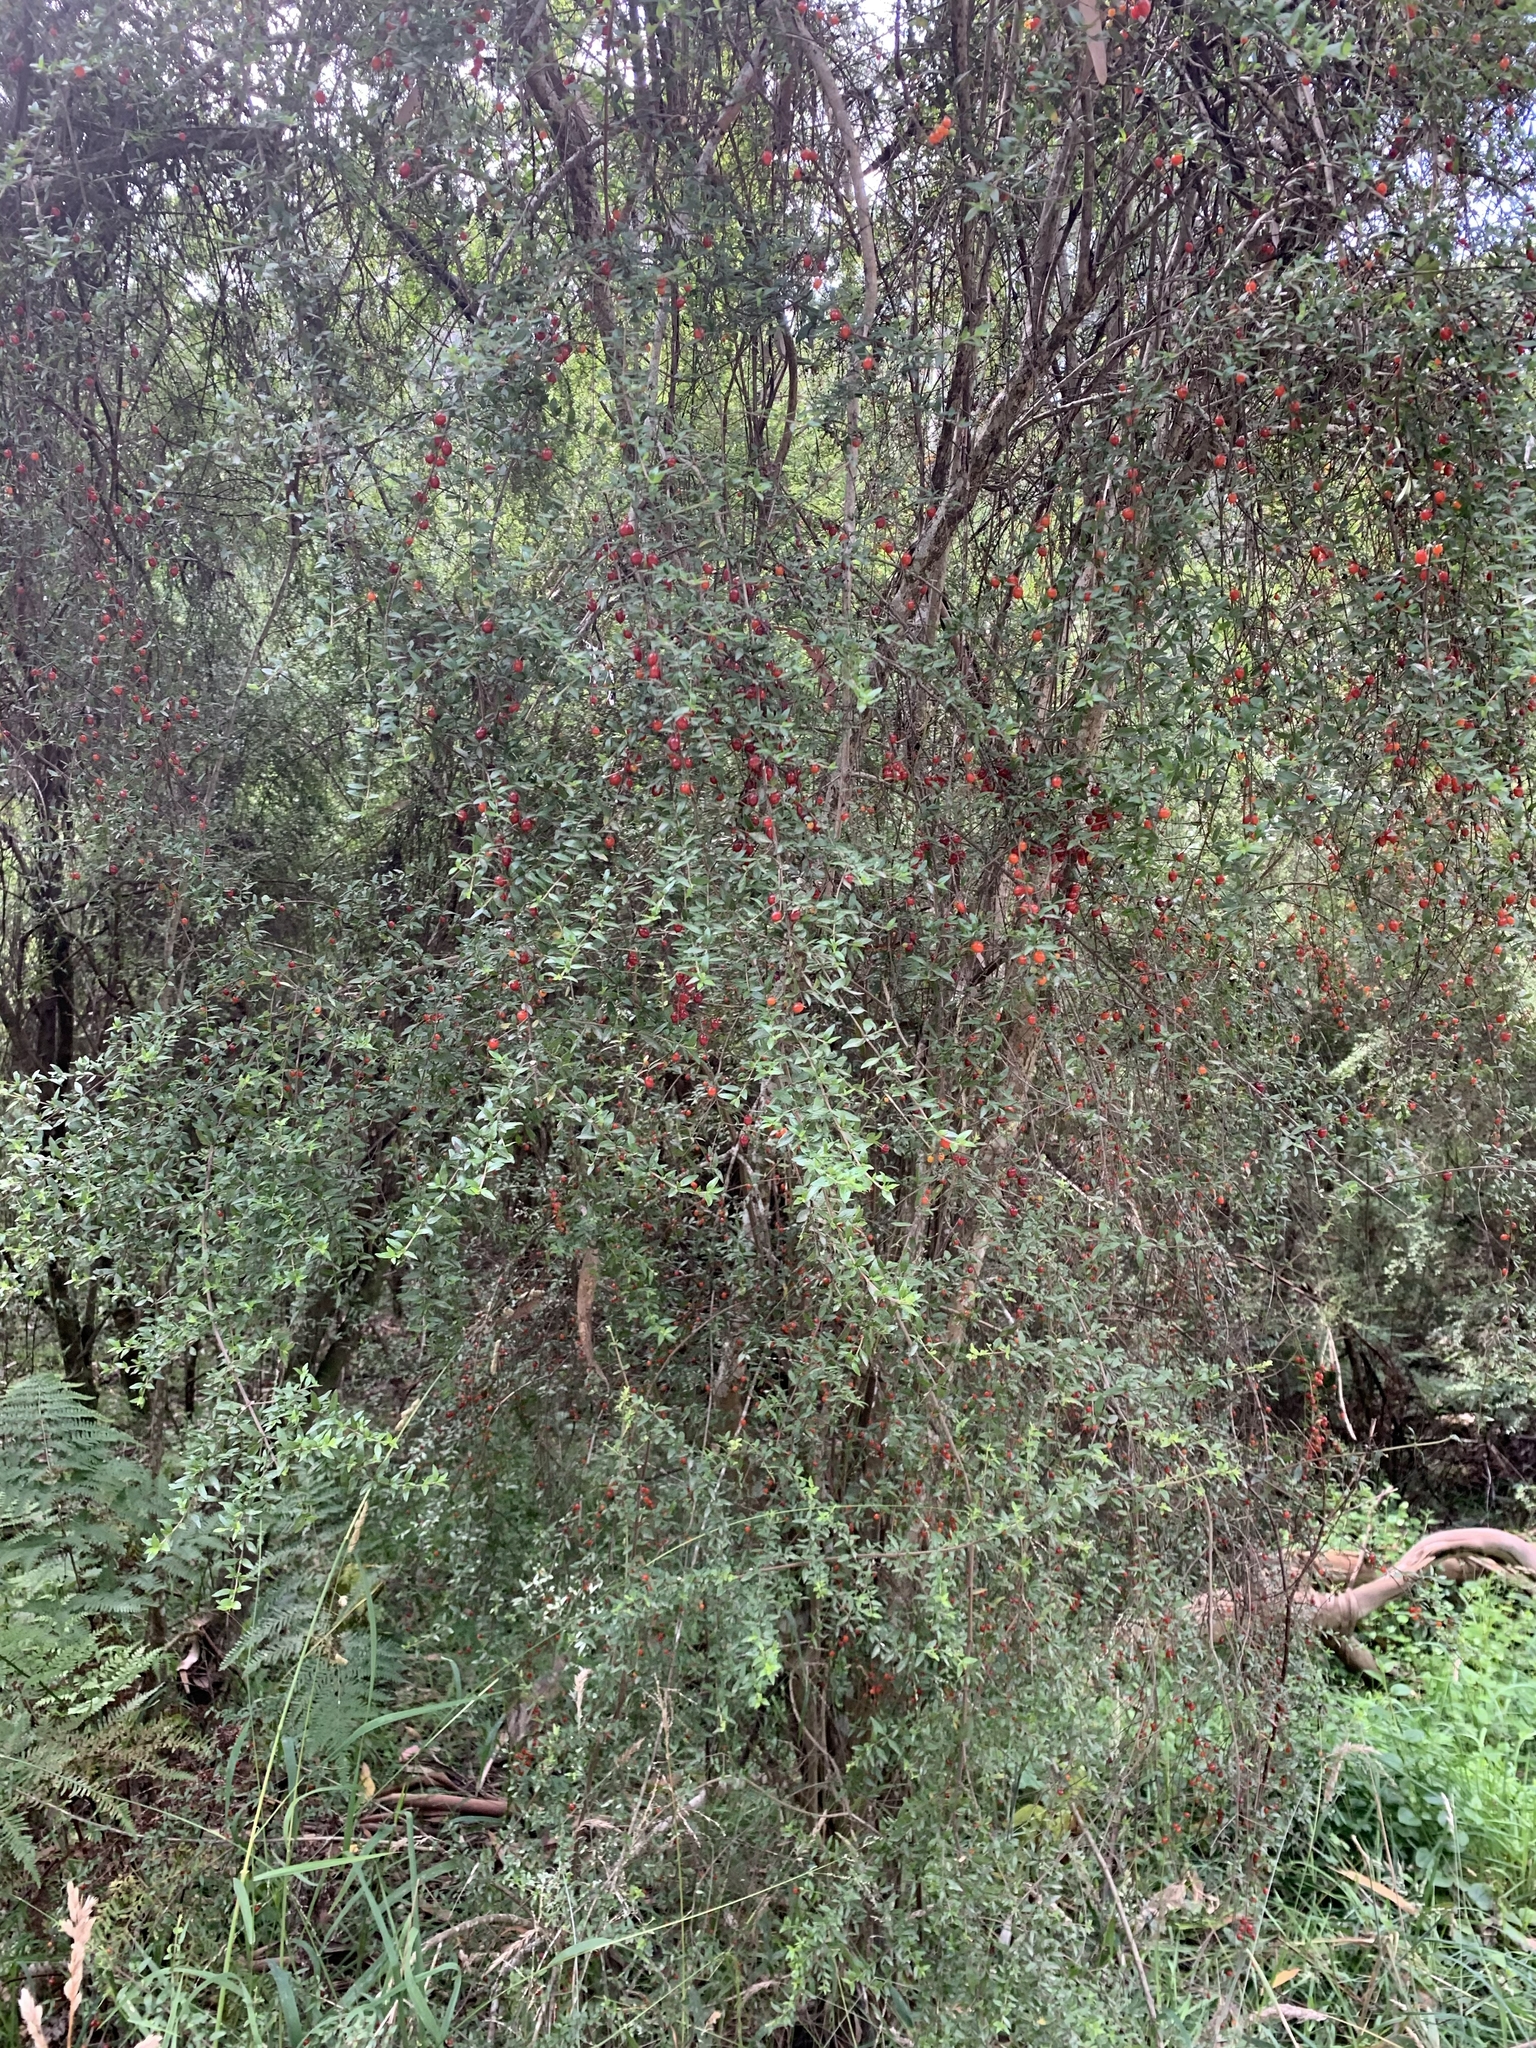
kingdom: Plantae
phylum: Tracheophyta
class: Magnoliopsida
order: Gentianales
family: Rubiaceae
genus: Coprosma
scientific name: Coprosma quadrifida
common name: Prickly currantbush
